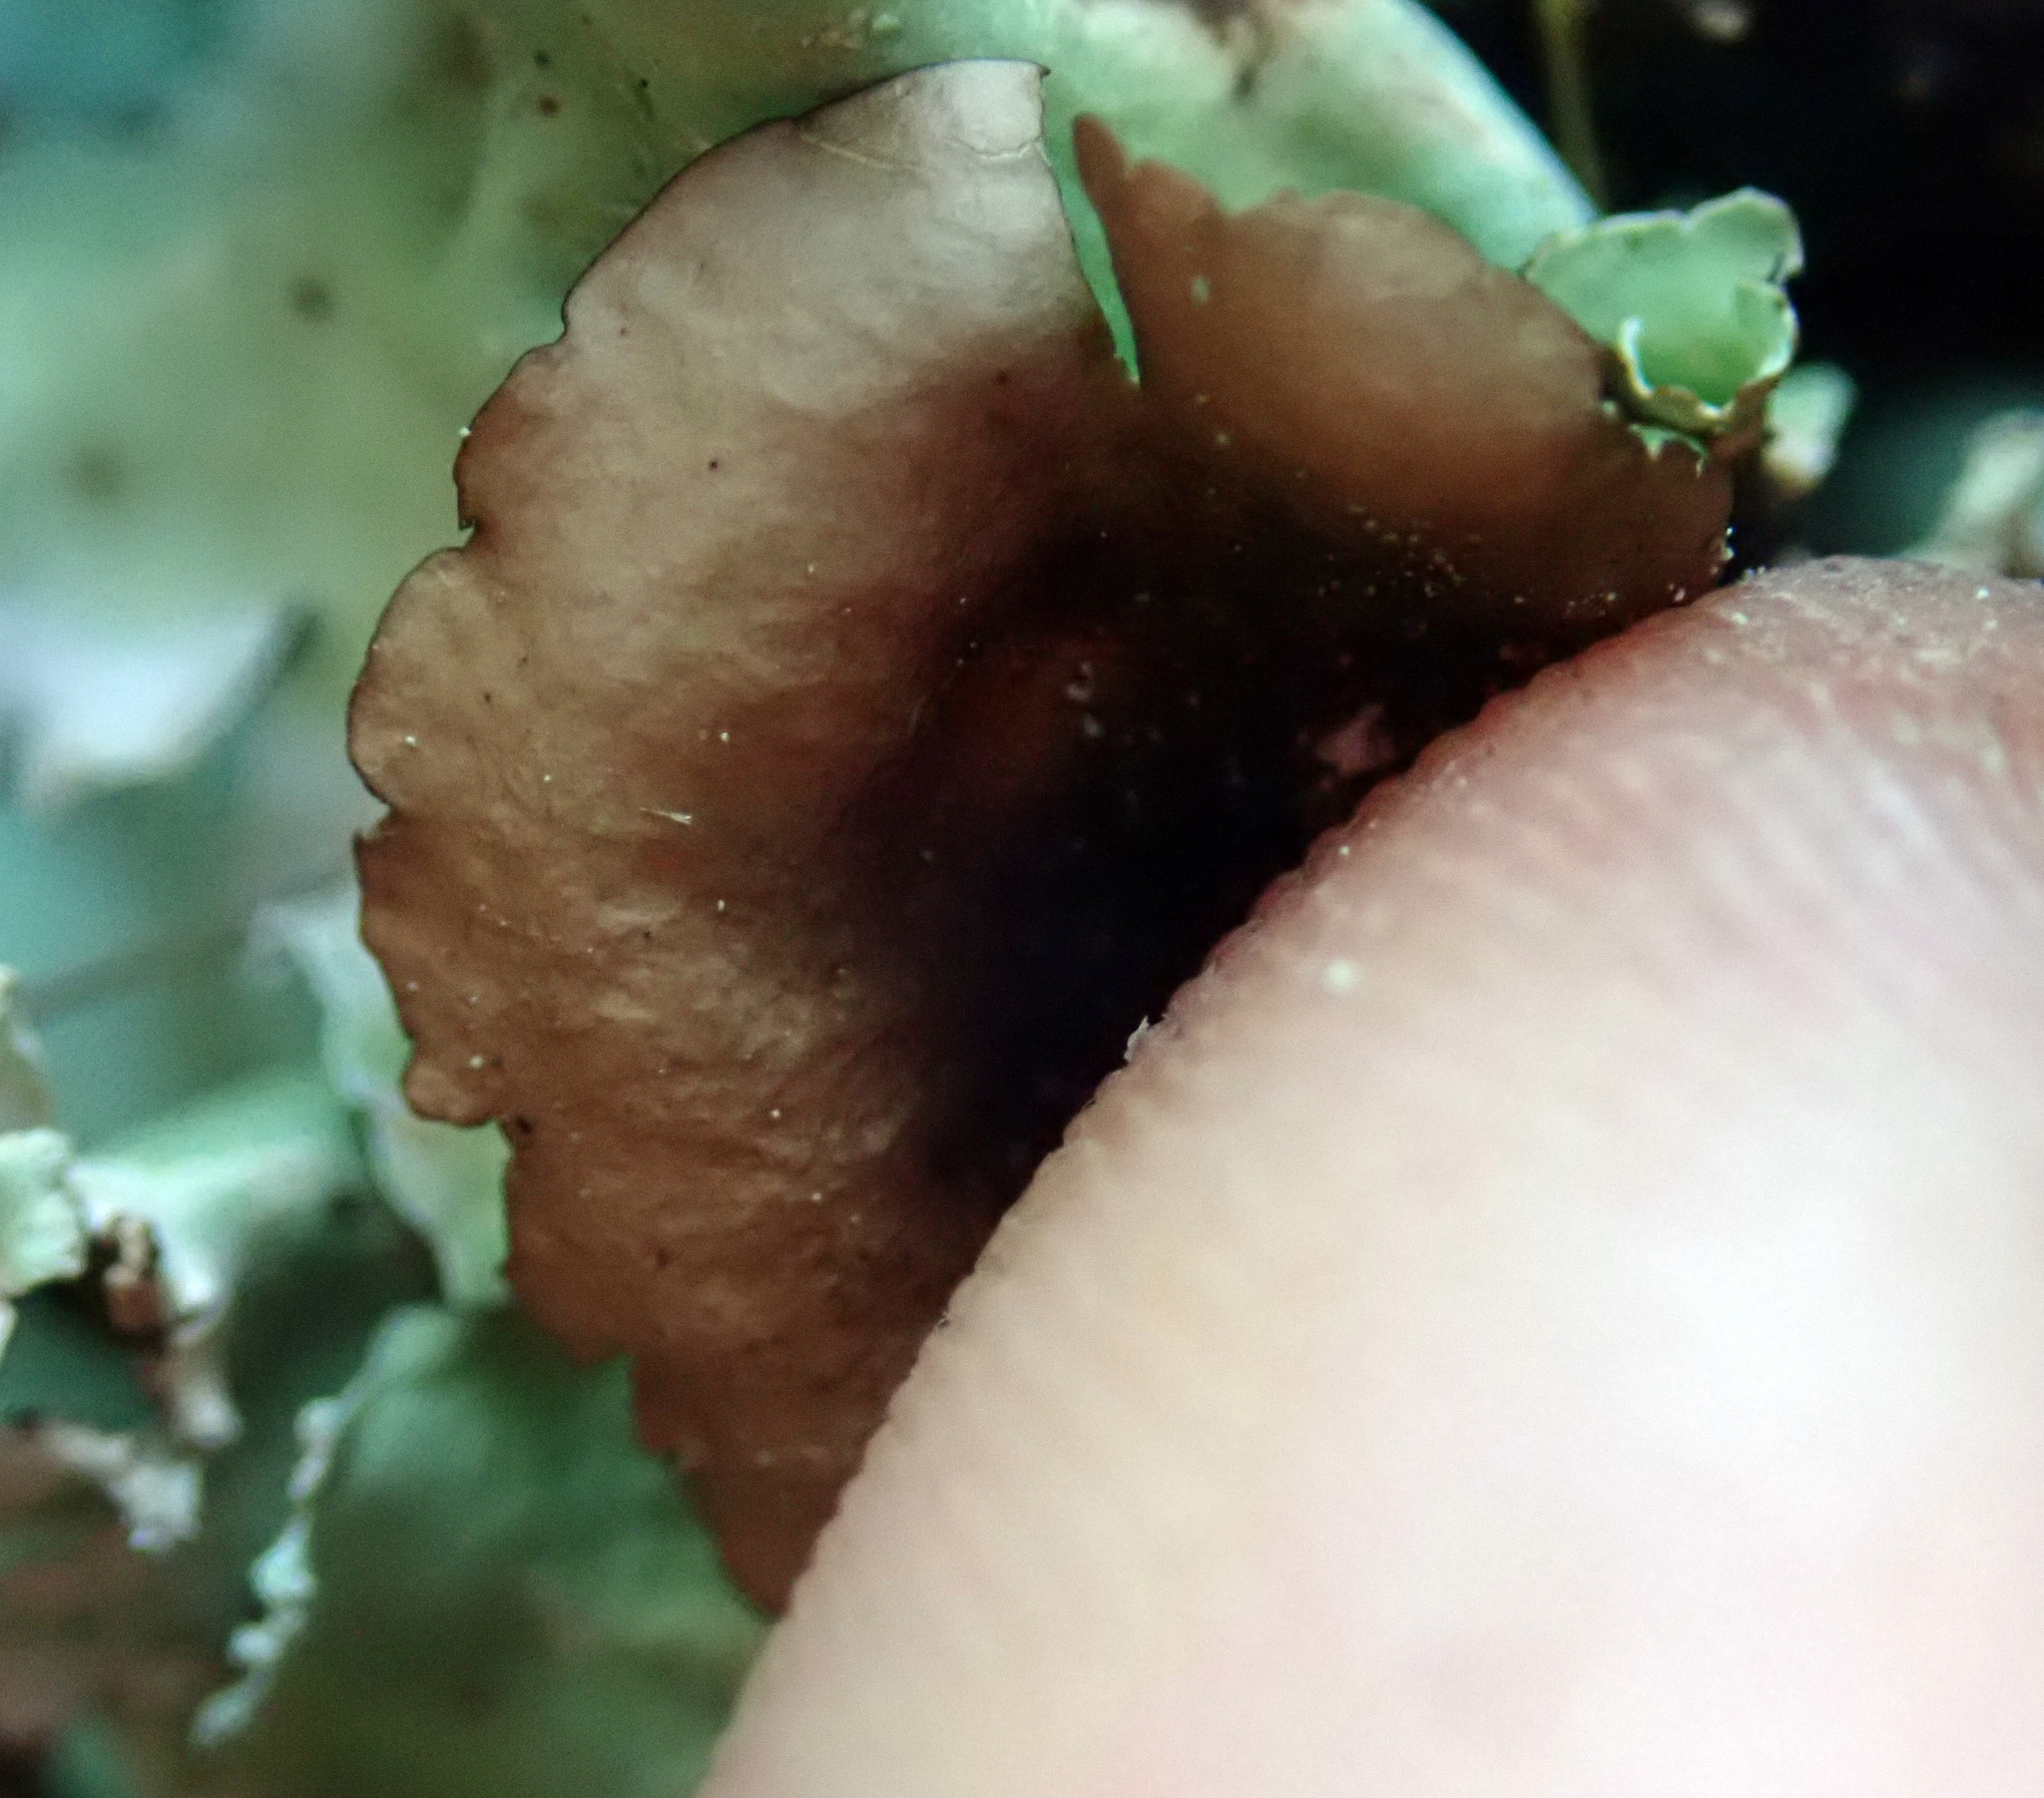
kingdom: Fungi
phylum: Ascomycota
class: Lecanoromycetes
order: Lecanorales
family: Parmeliaceae
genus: Parmotrema
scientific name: Parmotrema robustum
